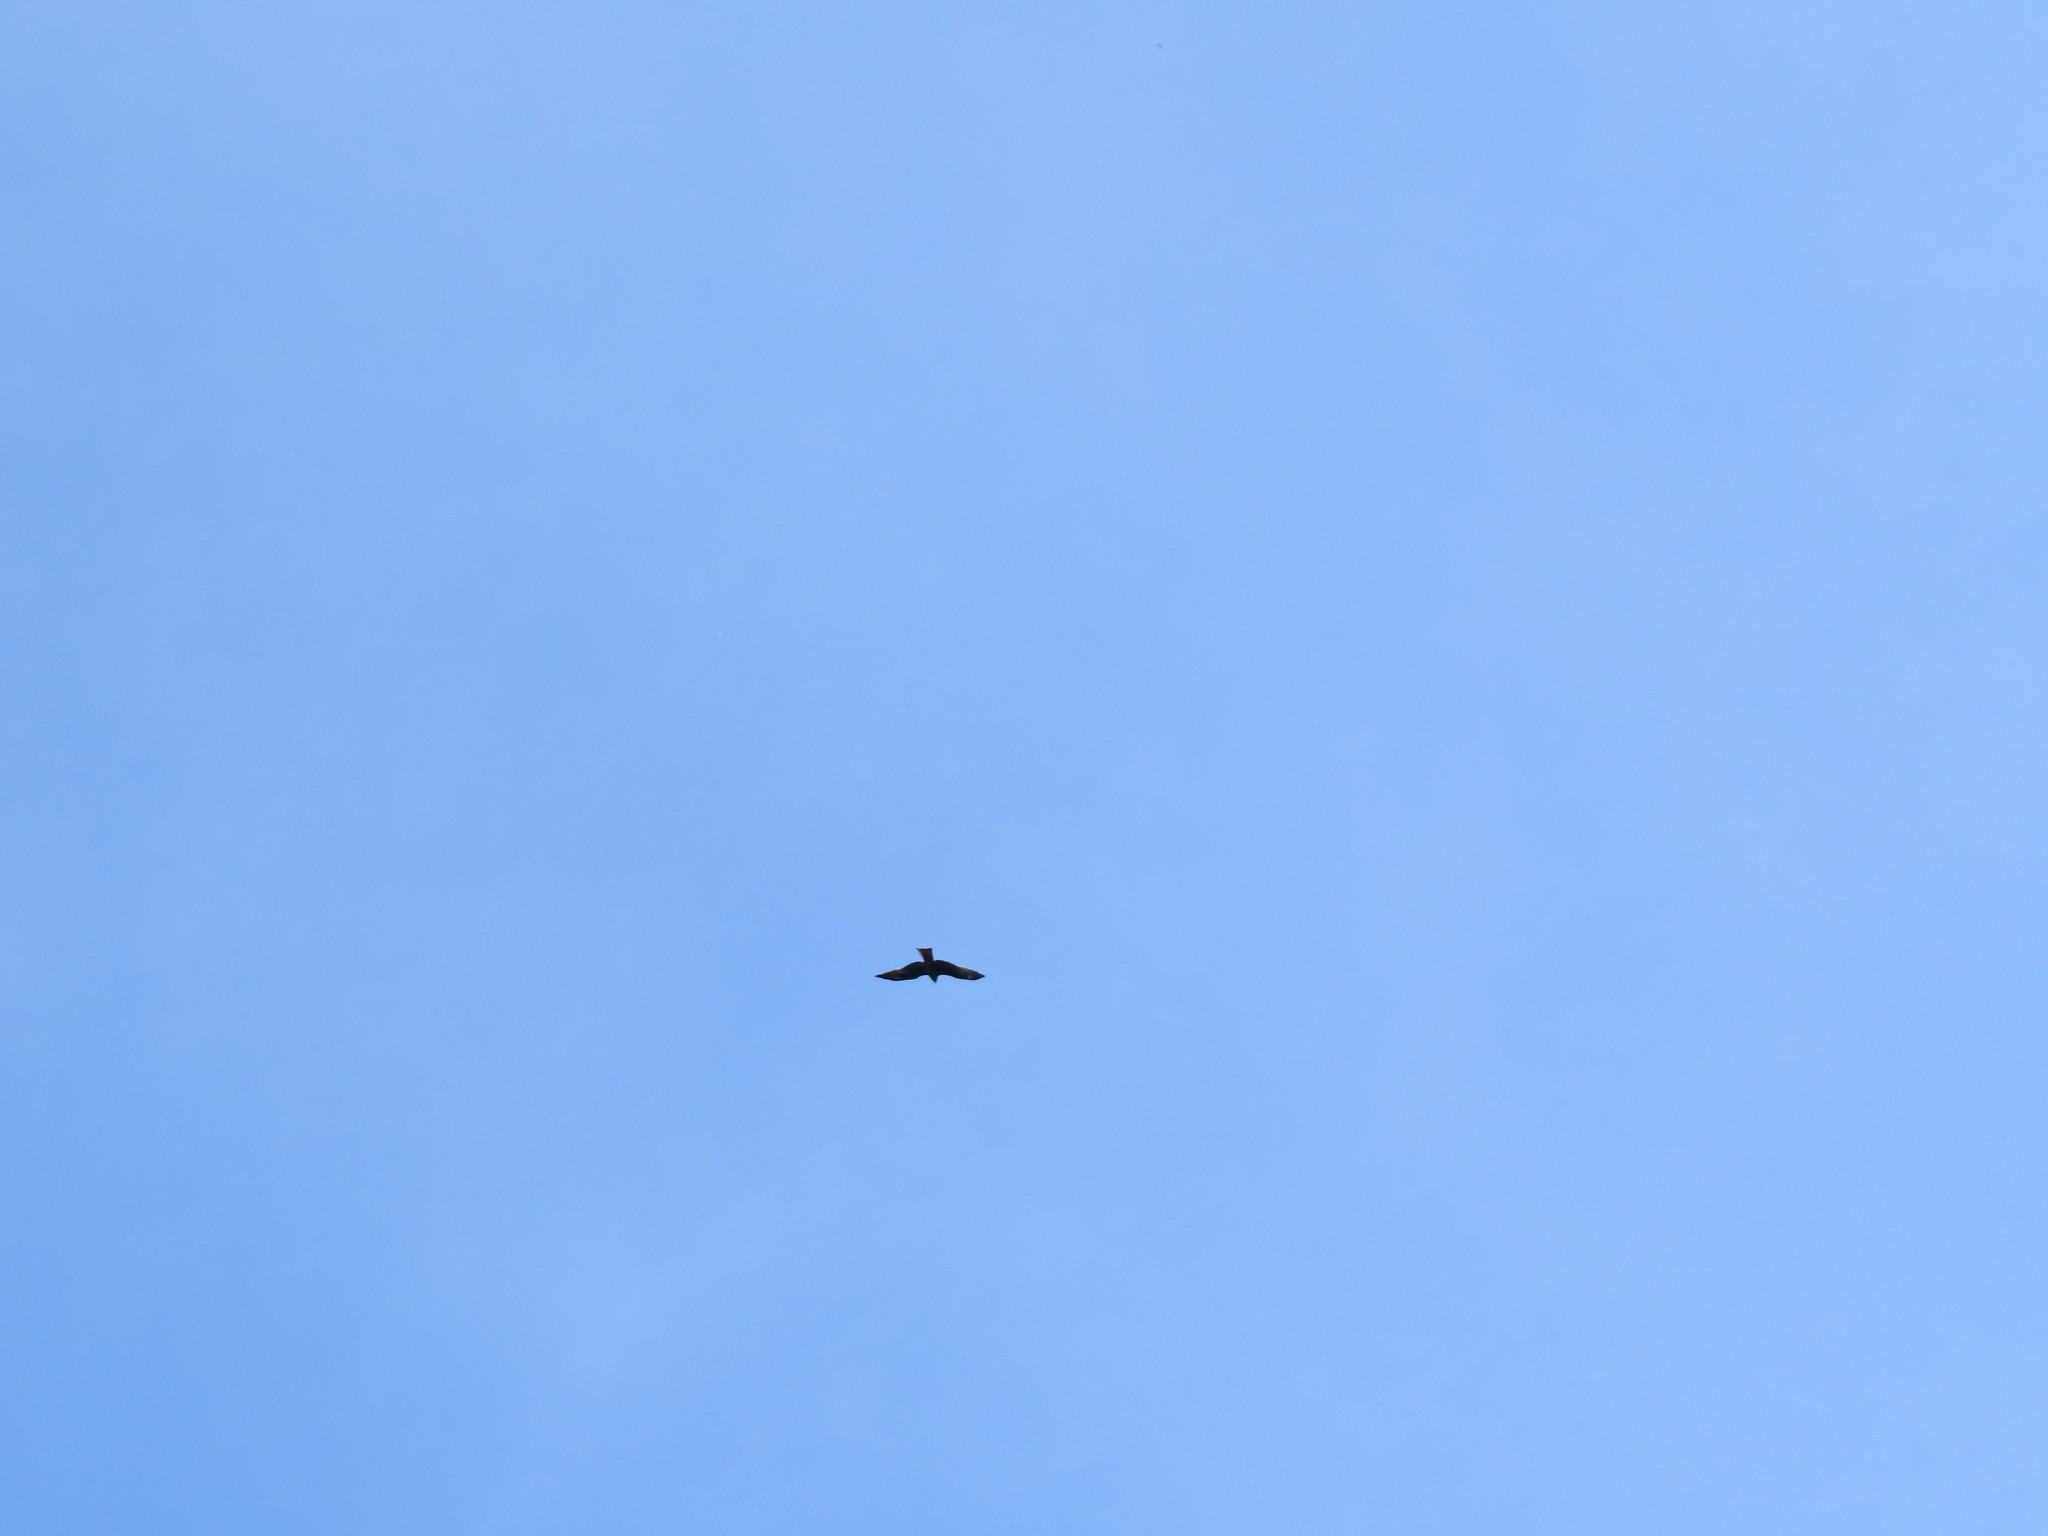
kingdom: Animalia
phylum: Chordata
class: Aves
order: Accipitriformes
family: Accipitridae
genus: Milvus
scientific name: Milvus migrans
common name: Black kite
